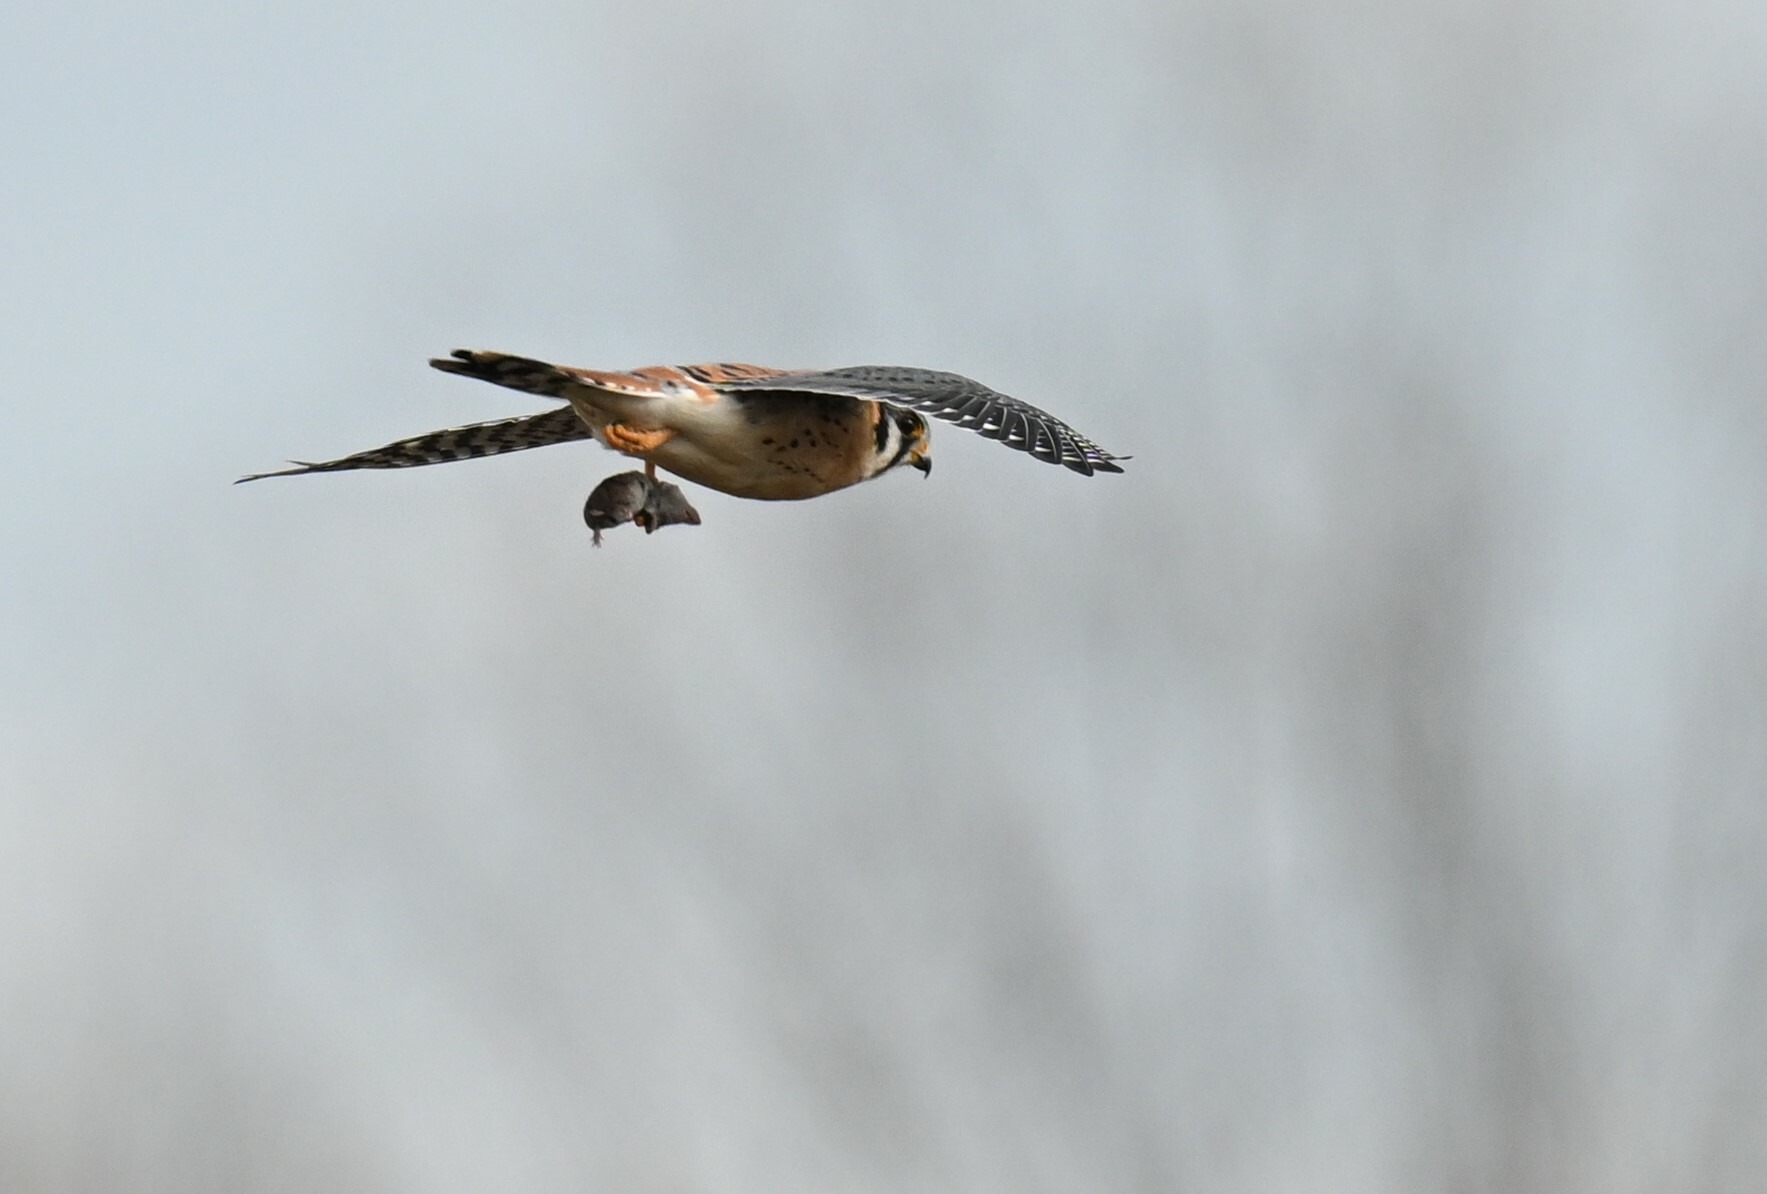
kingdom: Animalia
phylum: Chordata
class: Aves
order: Falconiformes
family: Falconidae
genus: Falco
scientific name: Falco sparverius
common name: American kestrel
